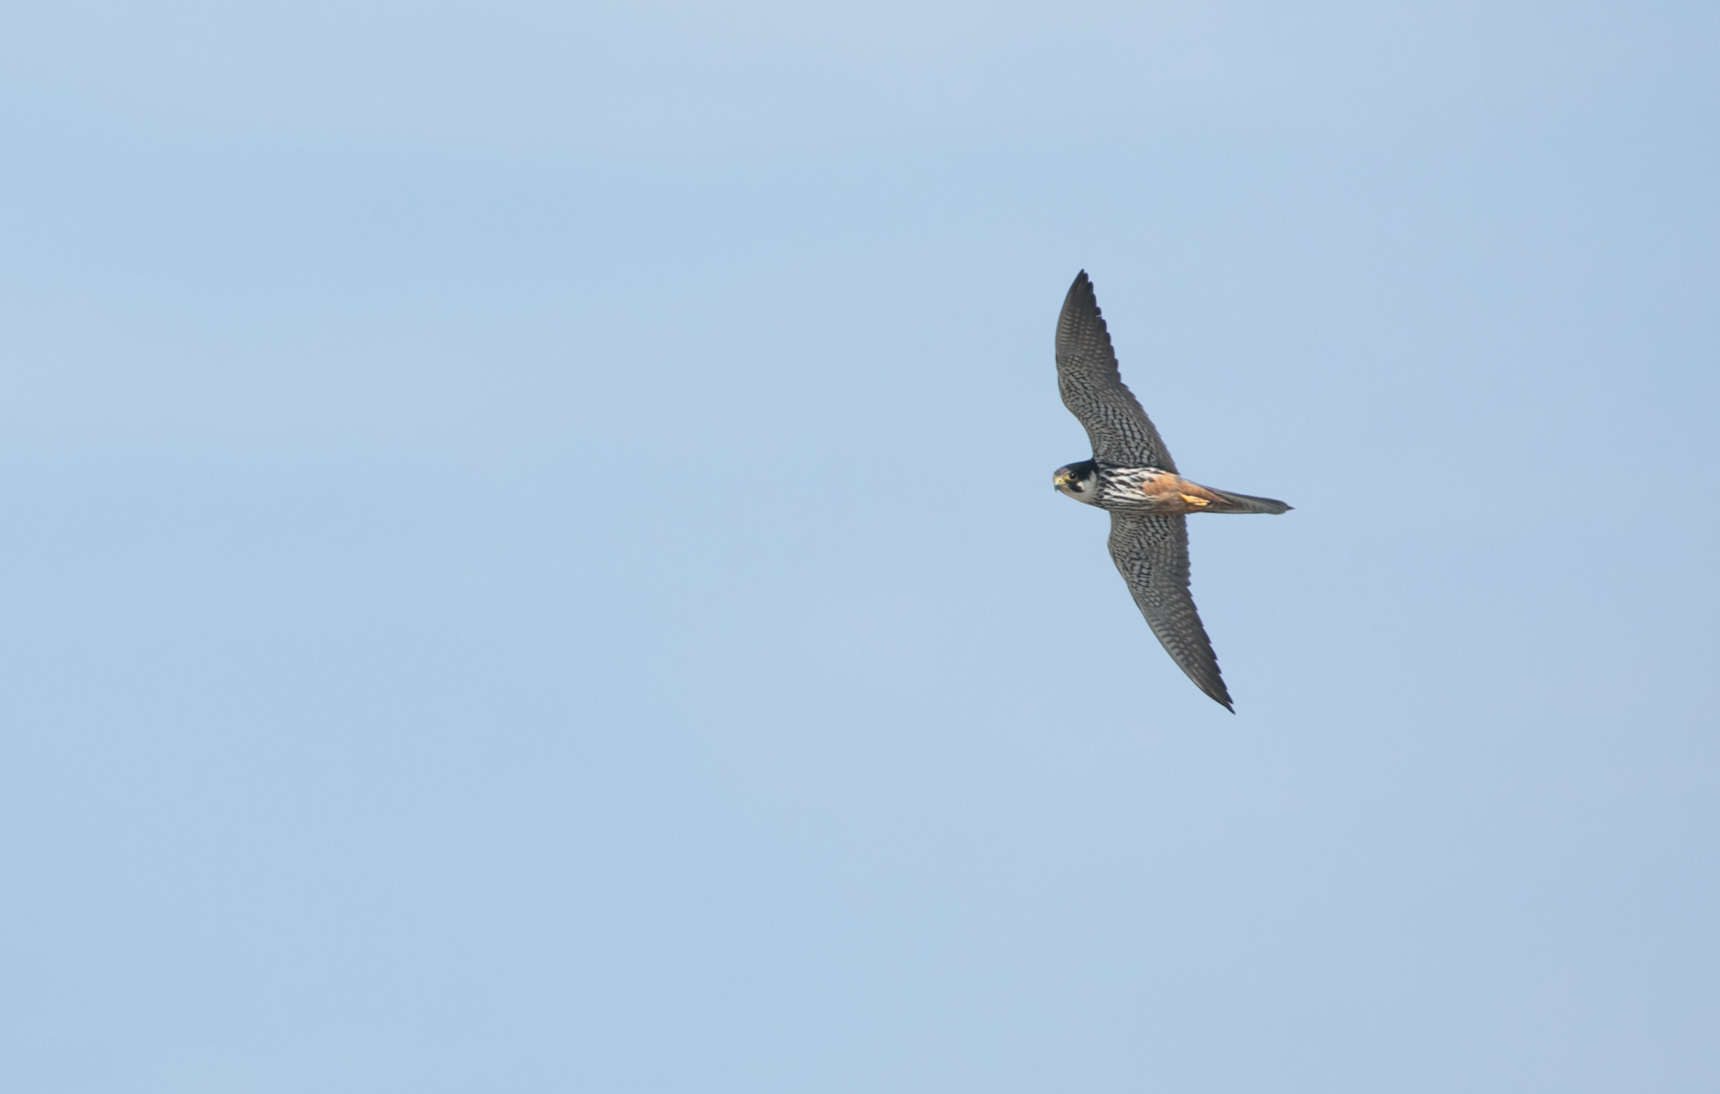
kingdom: Animalia
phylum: Chordata
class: Aves
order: Falconiformes
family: Falconidae
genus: Falco
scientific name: Falco subbuteo
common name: Eurasian hobby
